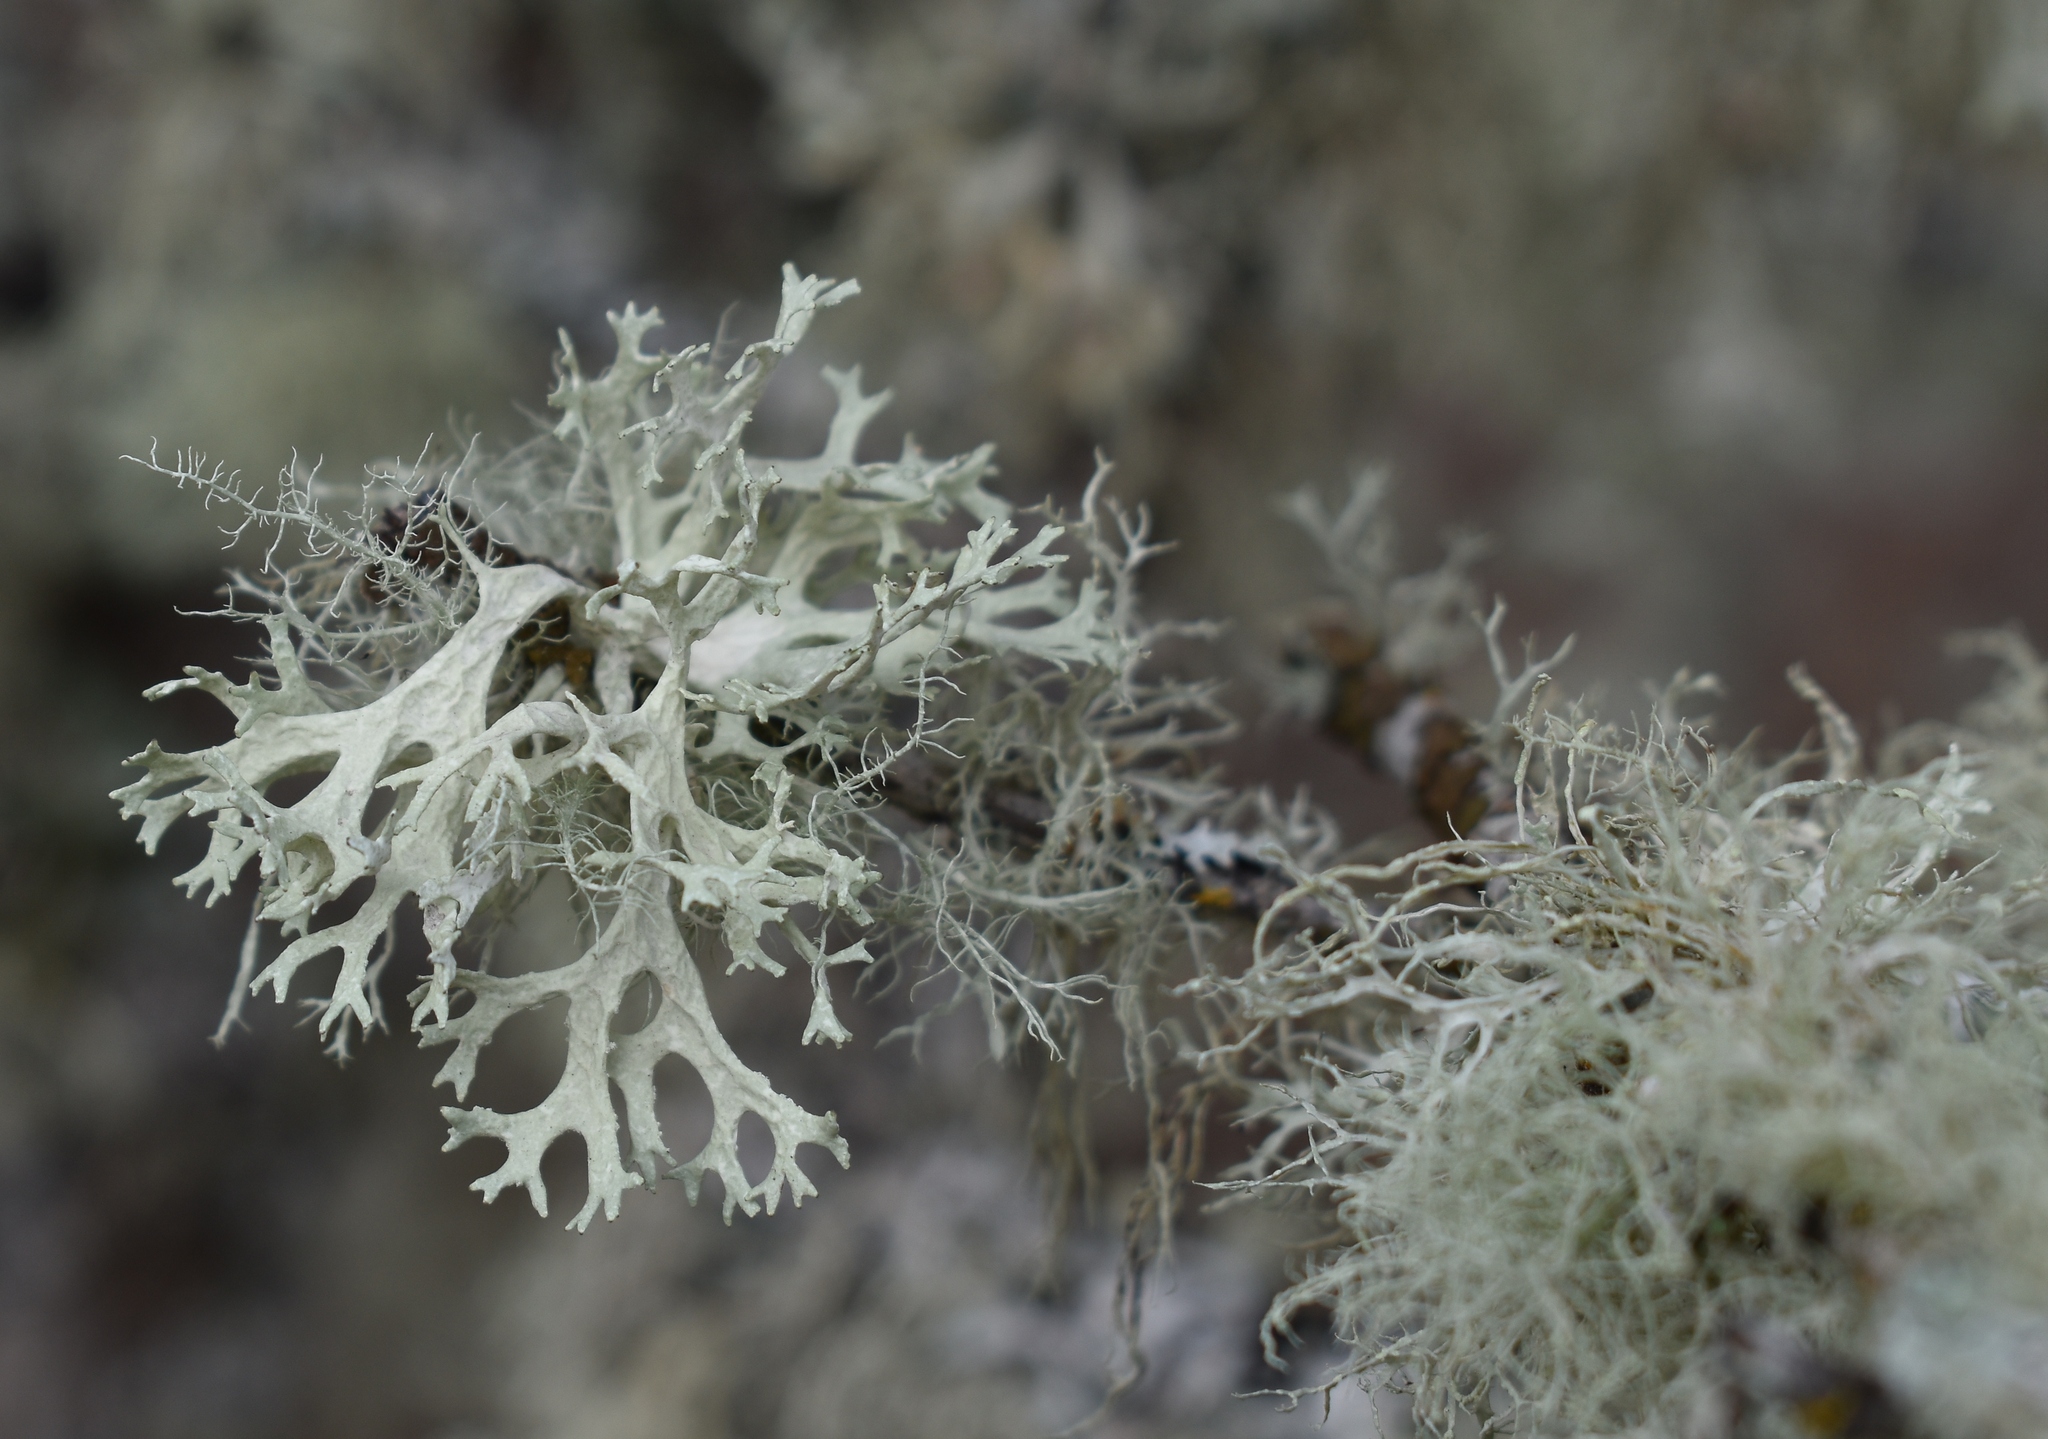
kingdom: Fungi
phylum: Ascomycota
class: Lecanoromycetes
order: Lecanorales
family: Parmeliaceae
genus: Evernia
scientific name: Evernia prunastri
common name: Oak moss
